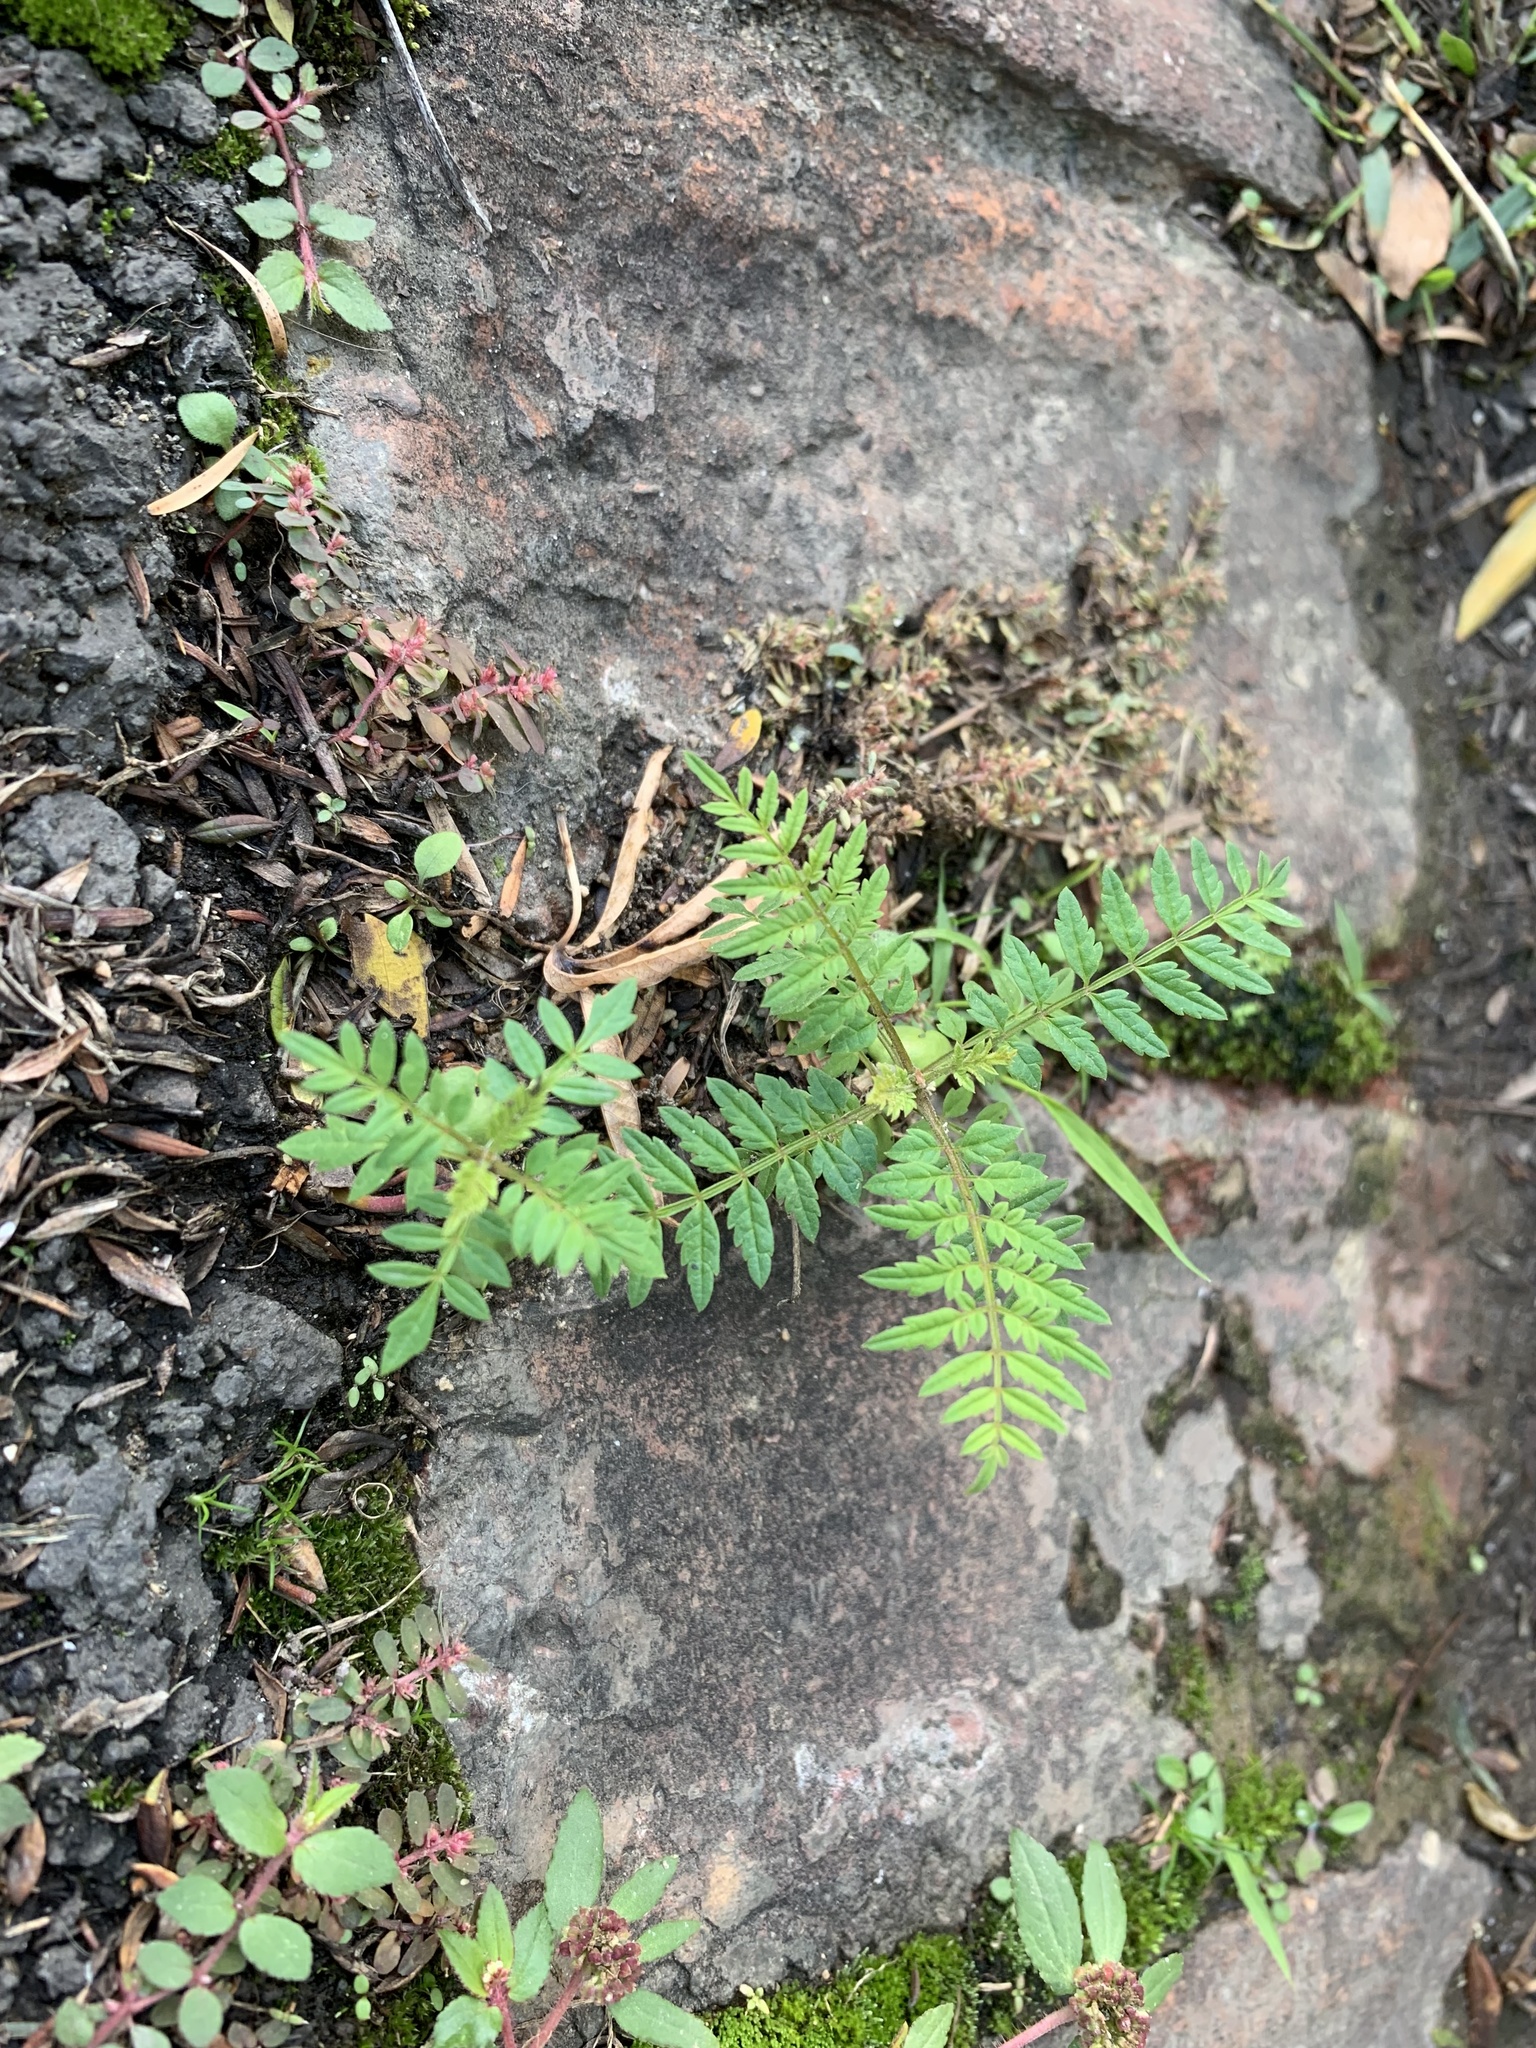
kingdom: Plantae
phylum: Tracheophyta
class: Magnoliopsida
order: Lamiales
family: Bignoniaceae
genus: Jacaranda
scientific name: Jacaranda mimosifolia
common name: Black poui
